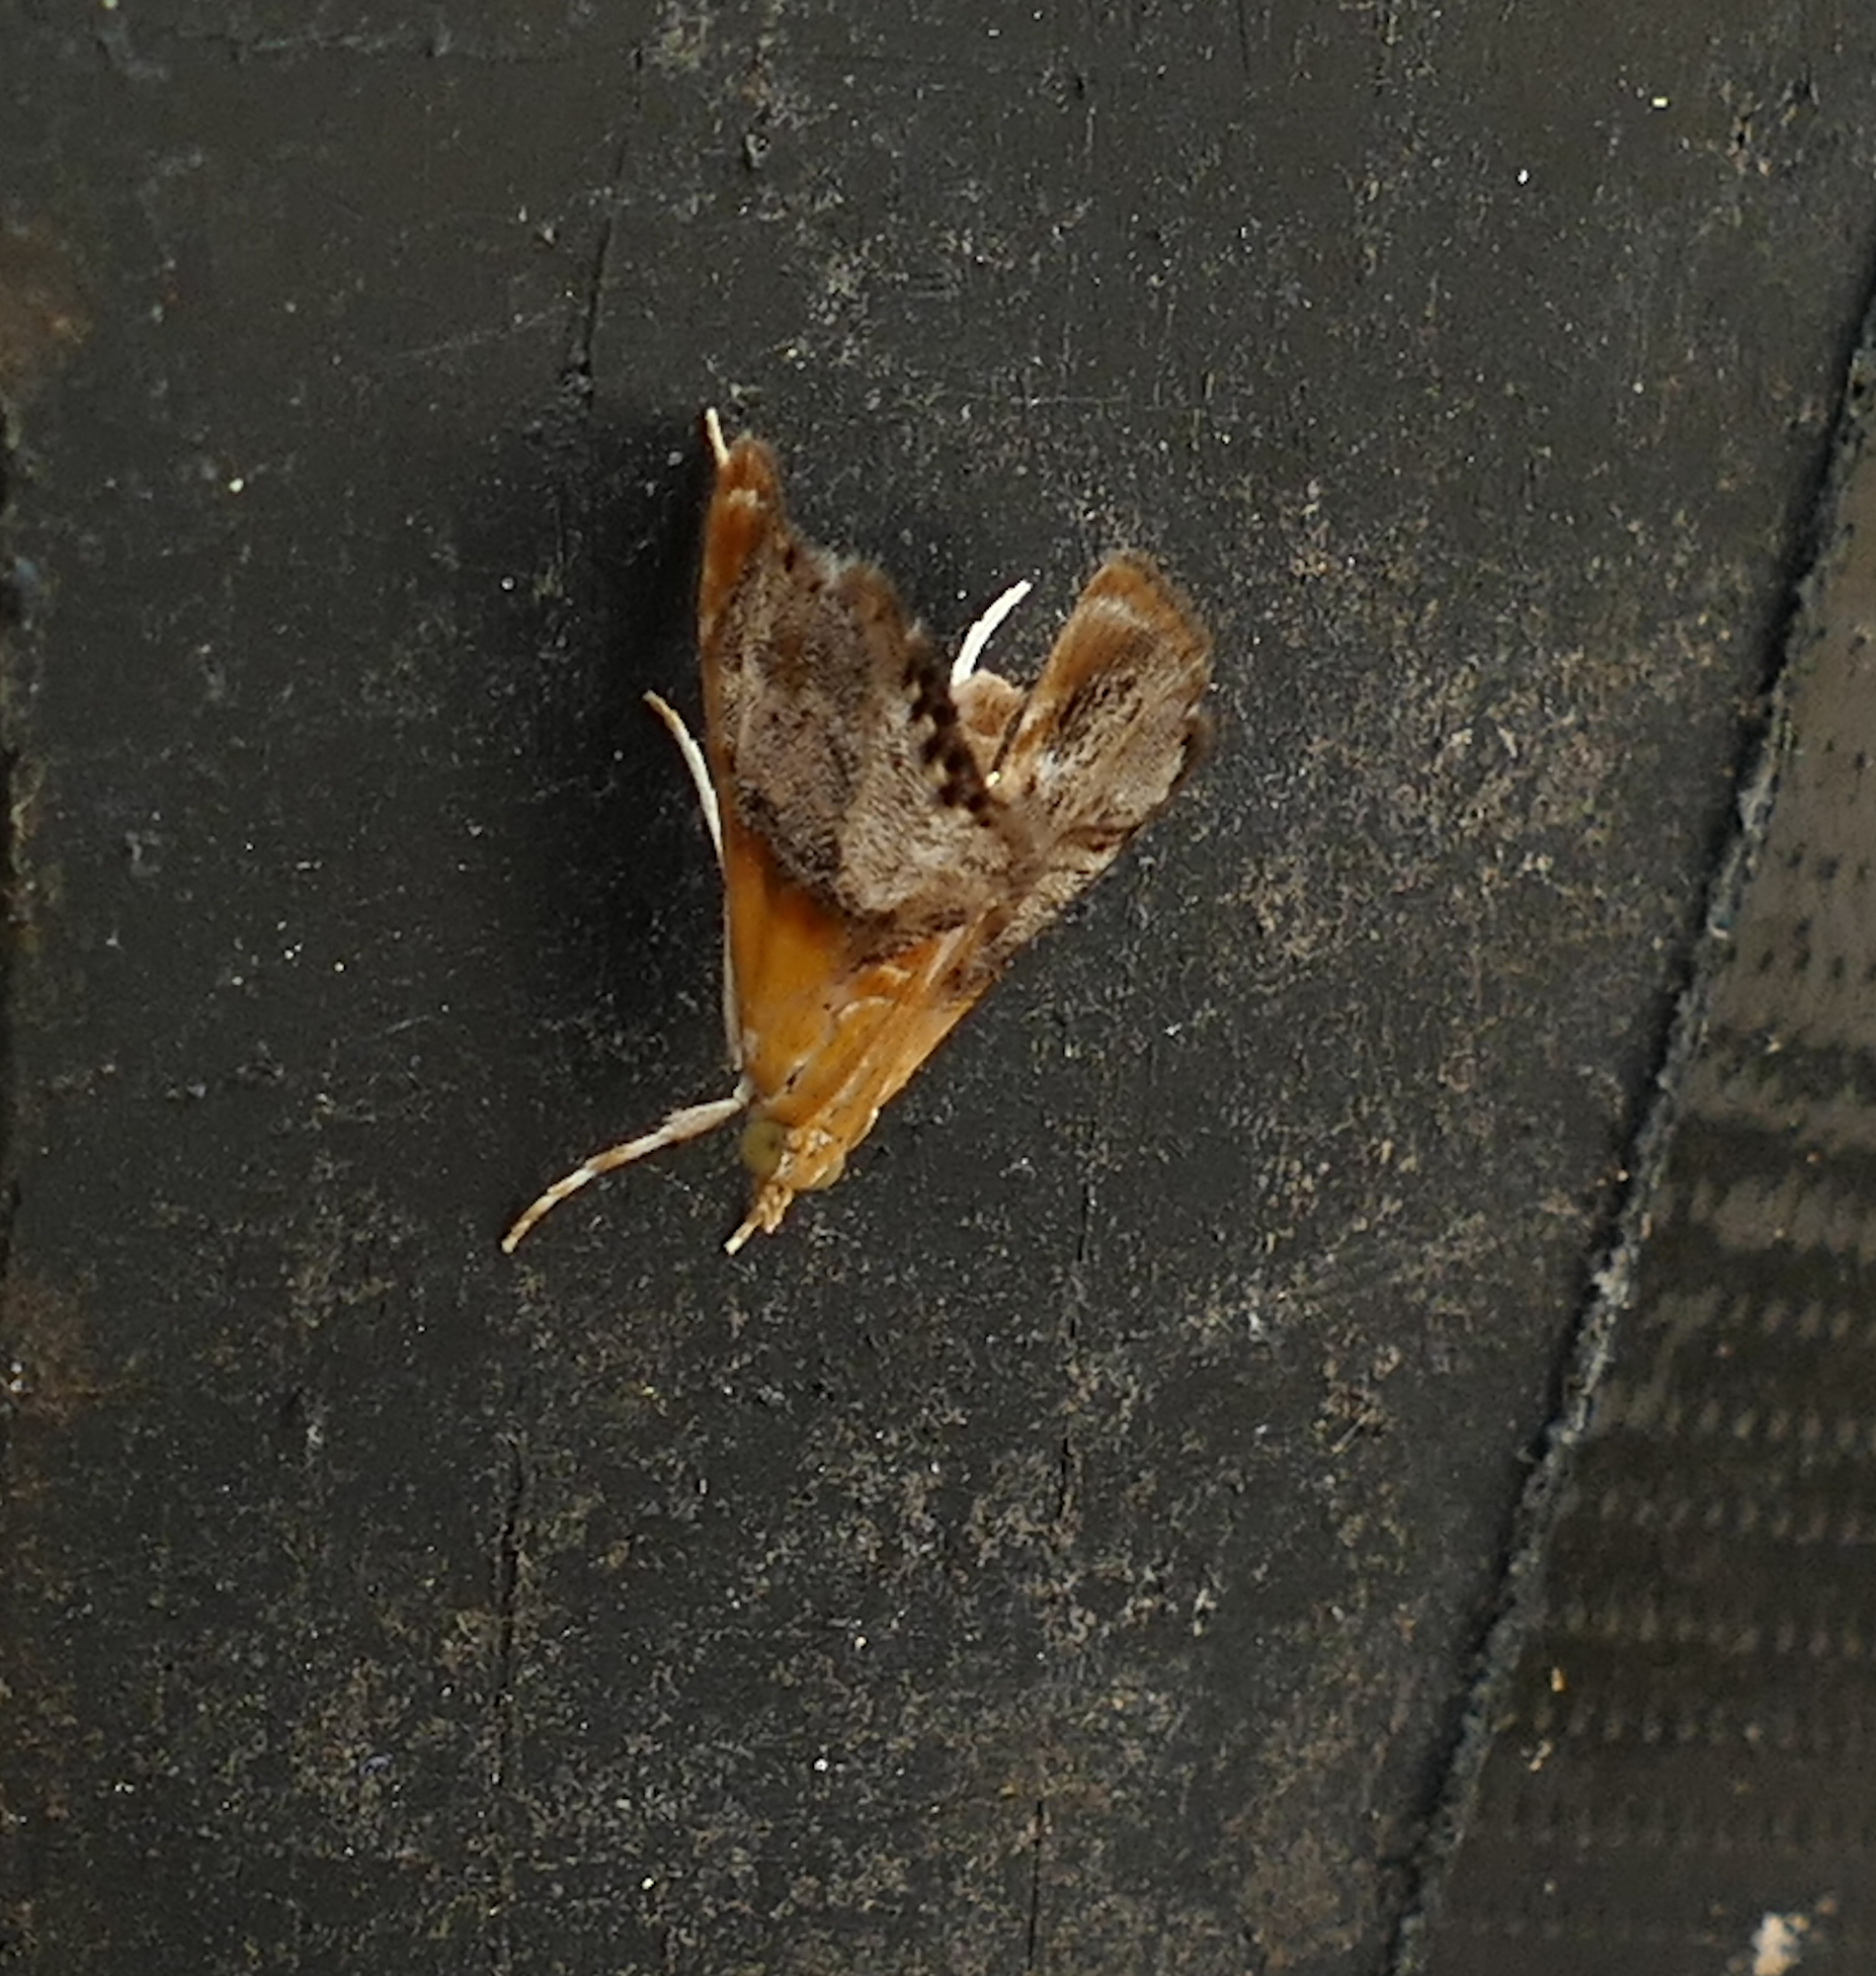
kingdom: Animalia
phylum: Arthropoda
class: Insecta
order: Lepidoptera
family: Crambidae
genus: Chalcoela
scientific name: Chalcoela iphitalis
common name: Sooty-winged chalcoela moth
